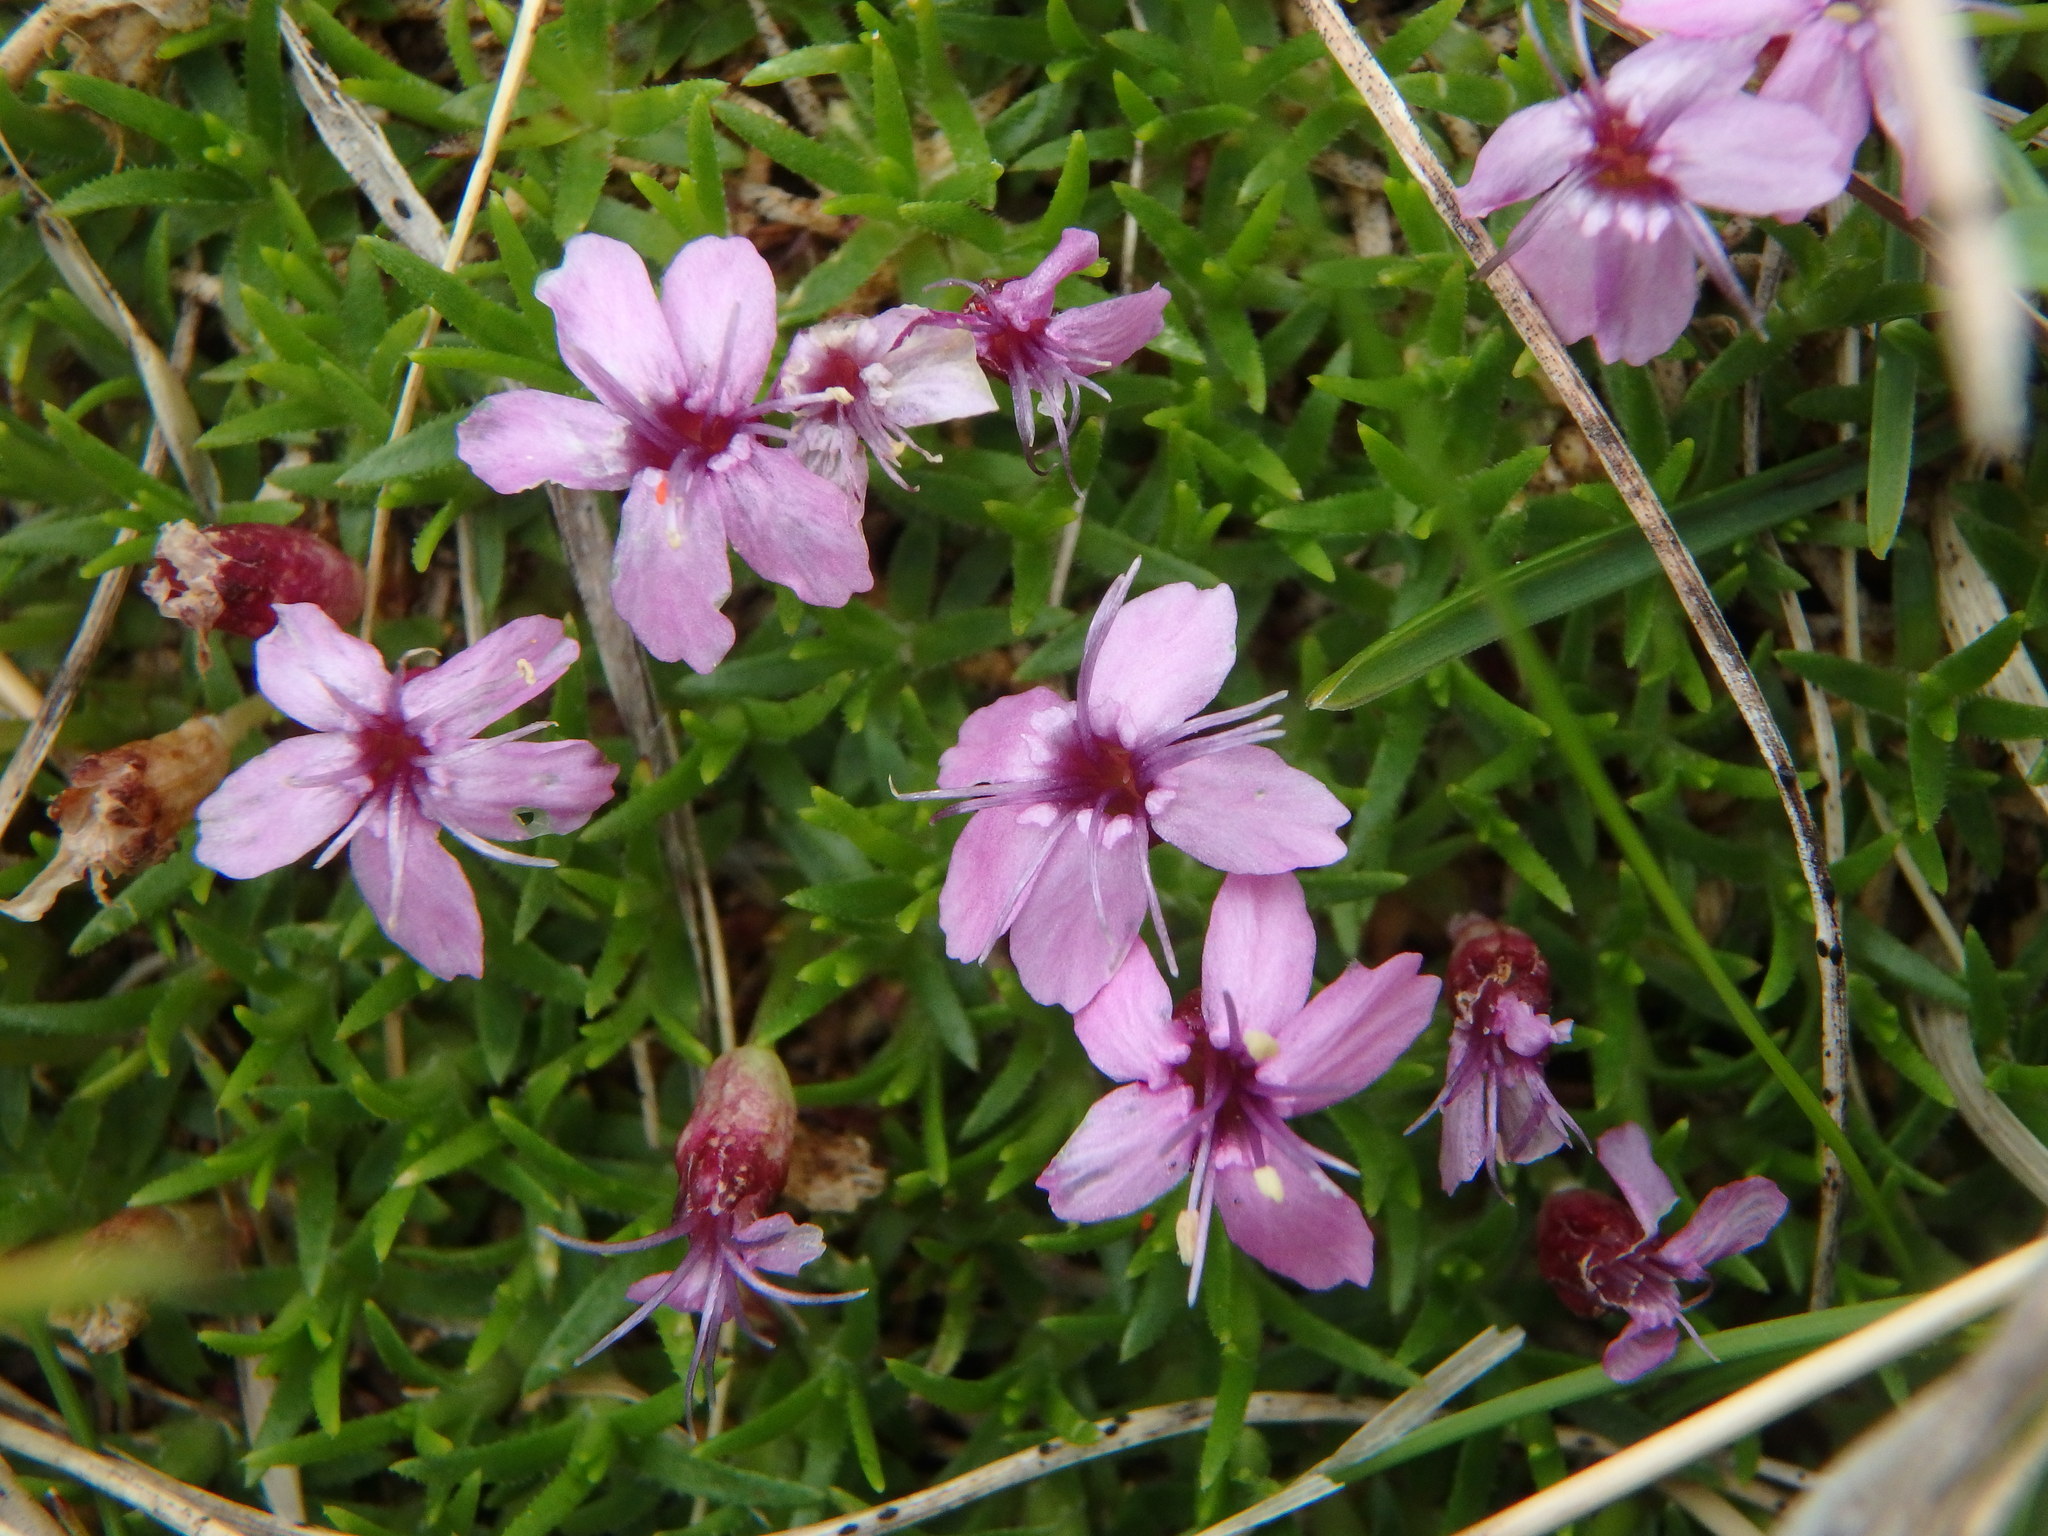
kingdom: Plantae
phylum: Tracheophyta
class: Magnoliopsida
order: Caryophyllales
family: Caryophyllaceae
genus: Silene
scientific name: Silene acaulis
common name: Moss campion
